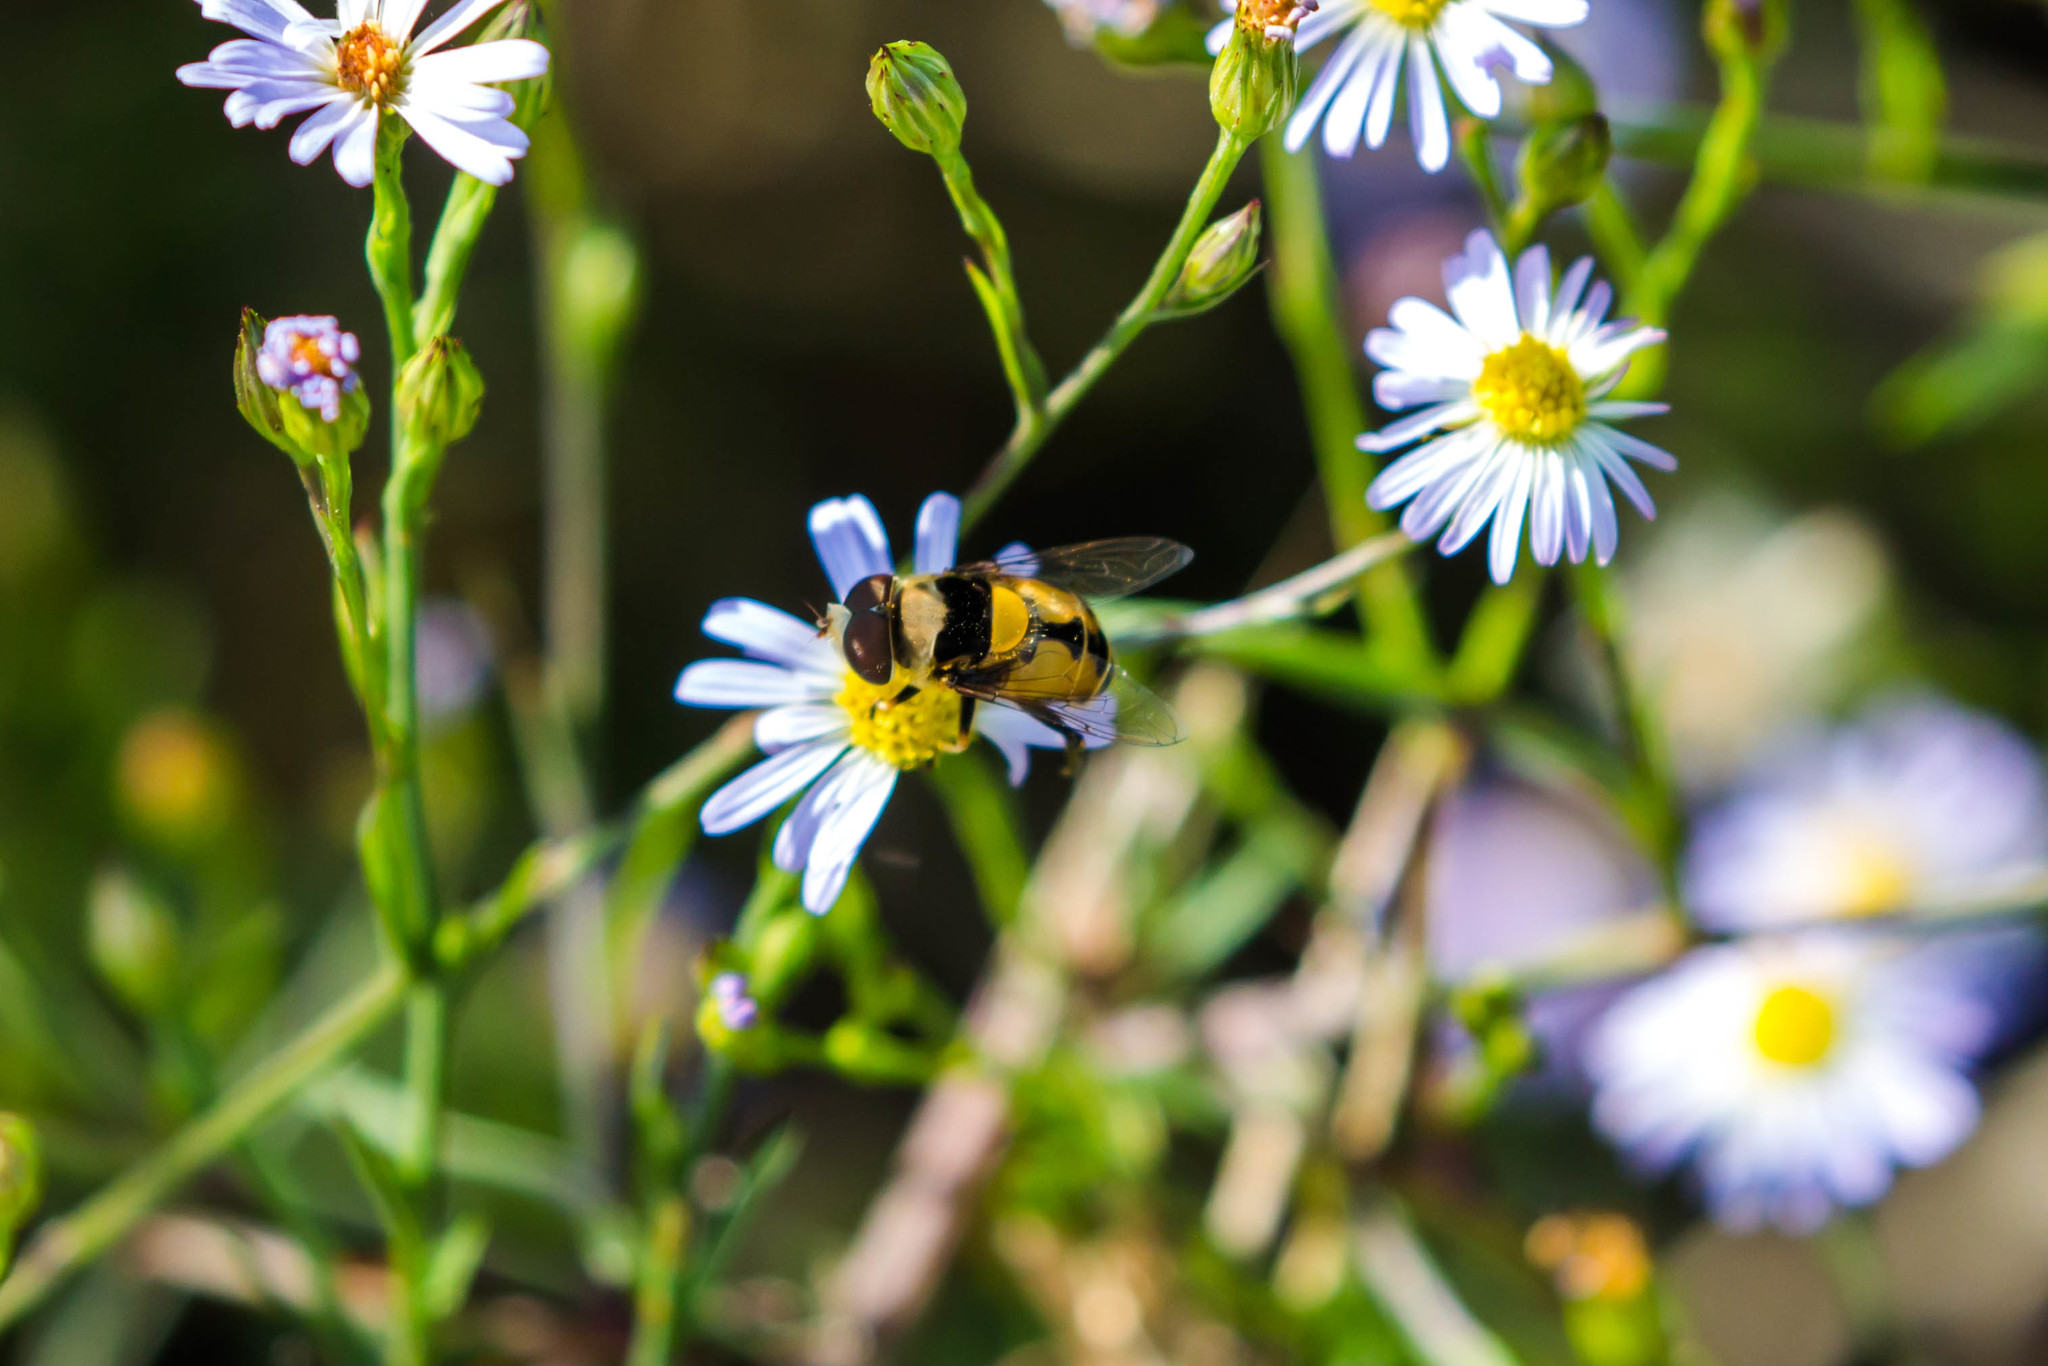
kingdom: Animalia
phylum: Arthropoda
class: Insecta
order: Diptera
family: Syrphidae
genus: Palpada
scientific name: Palpada pusilla
